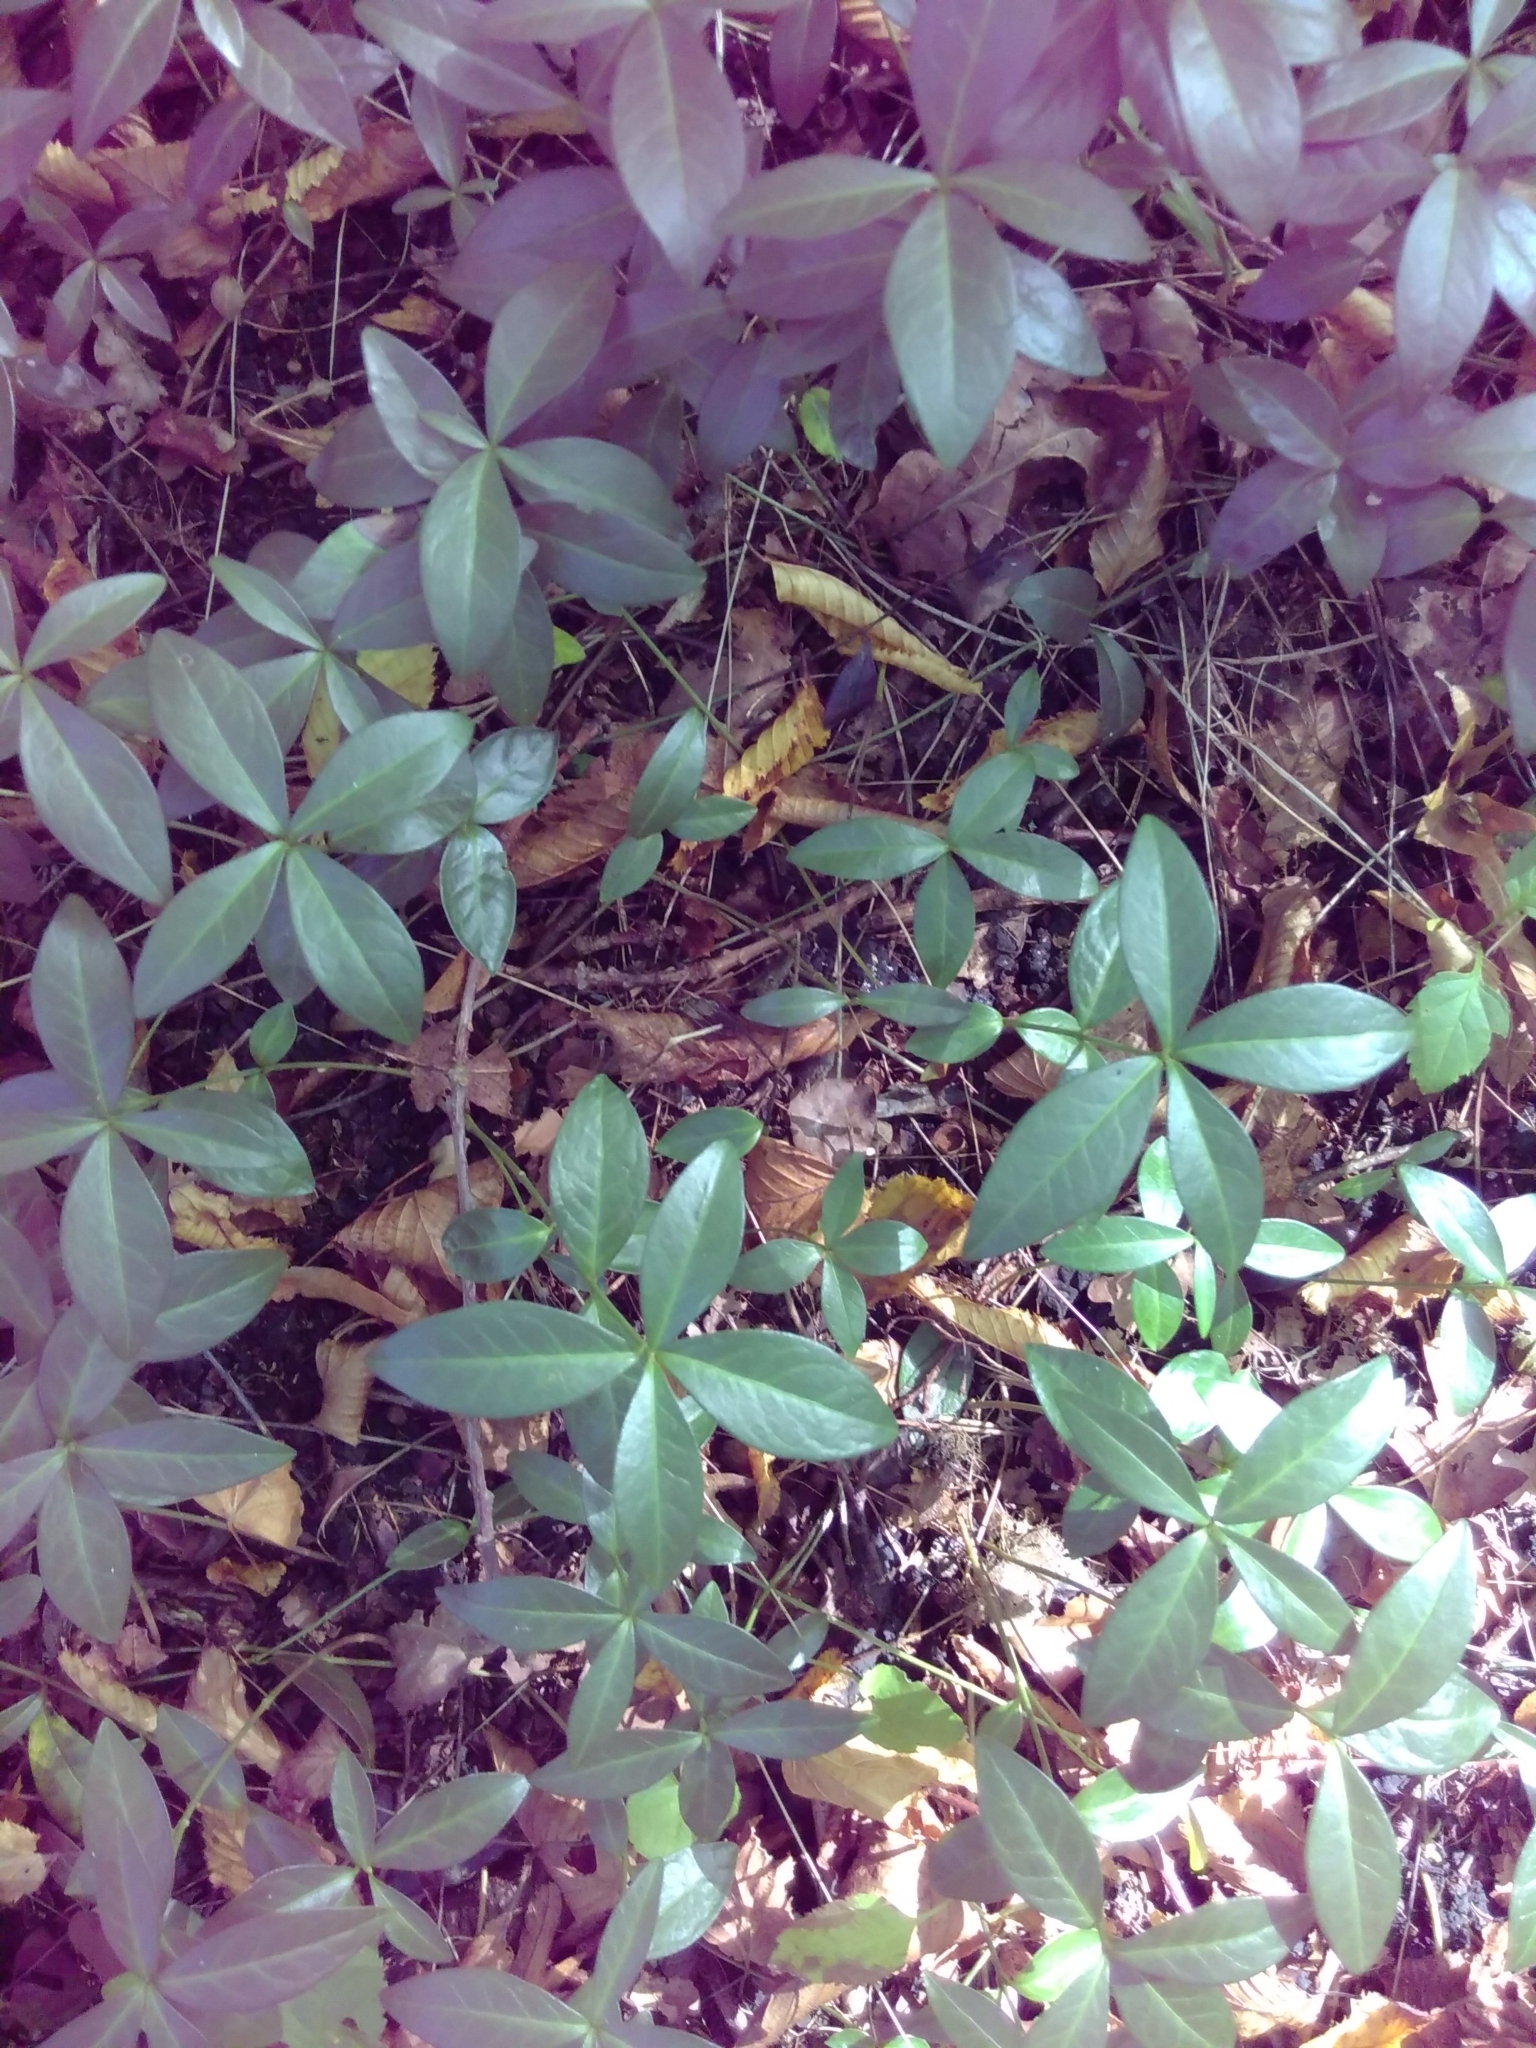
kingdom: Plantae
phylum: Tracheophyta
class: Magnoliopsida
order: Gentianales
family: Apocynaceae
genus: Vinca
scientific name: Vinca minor
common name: Lesser periwinkle
